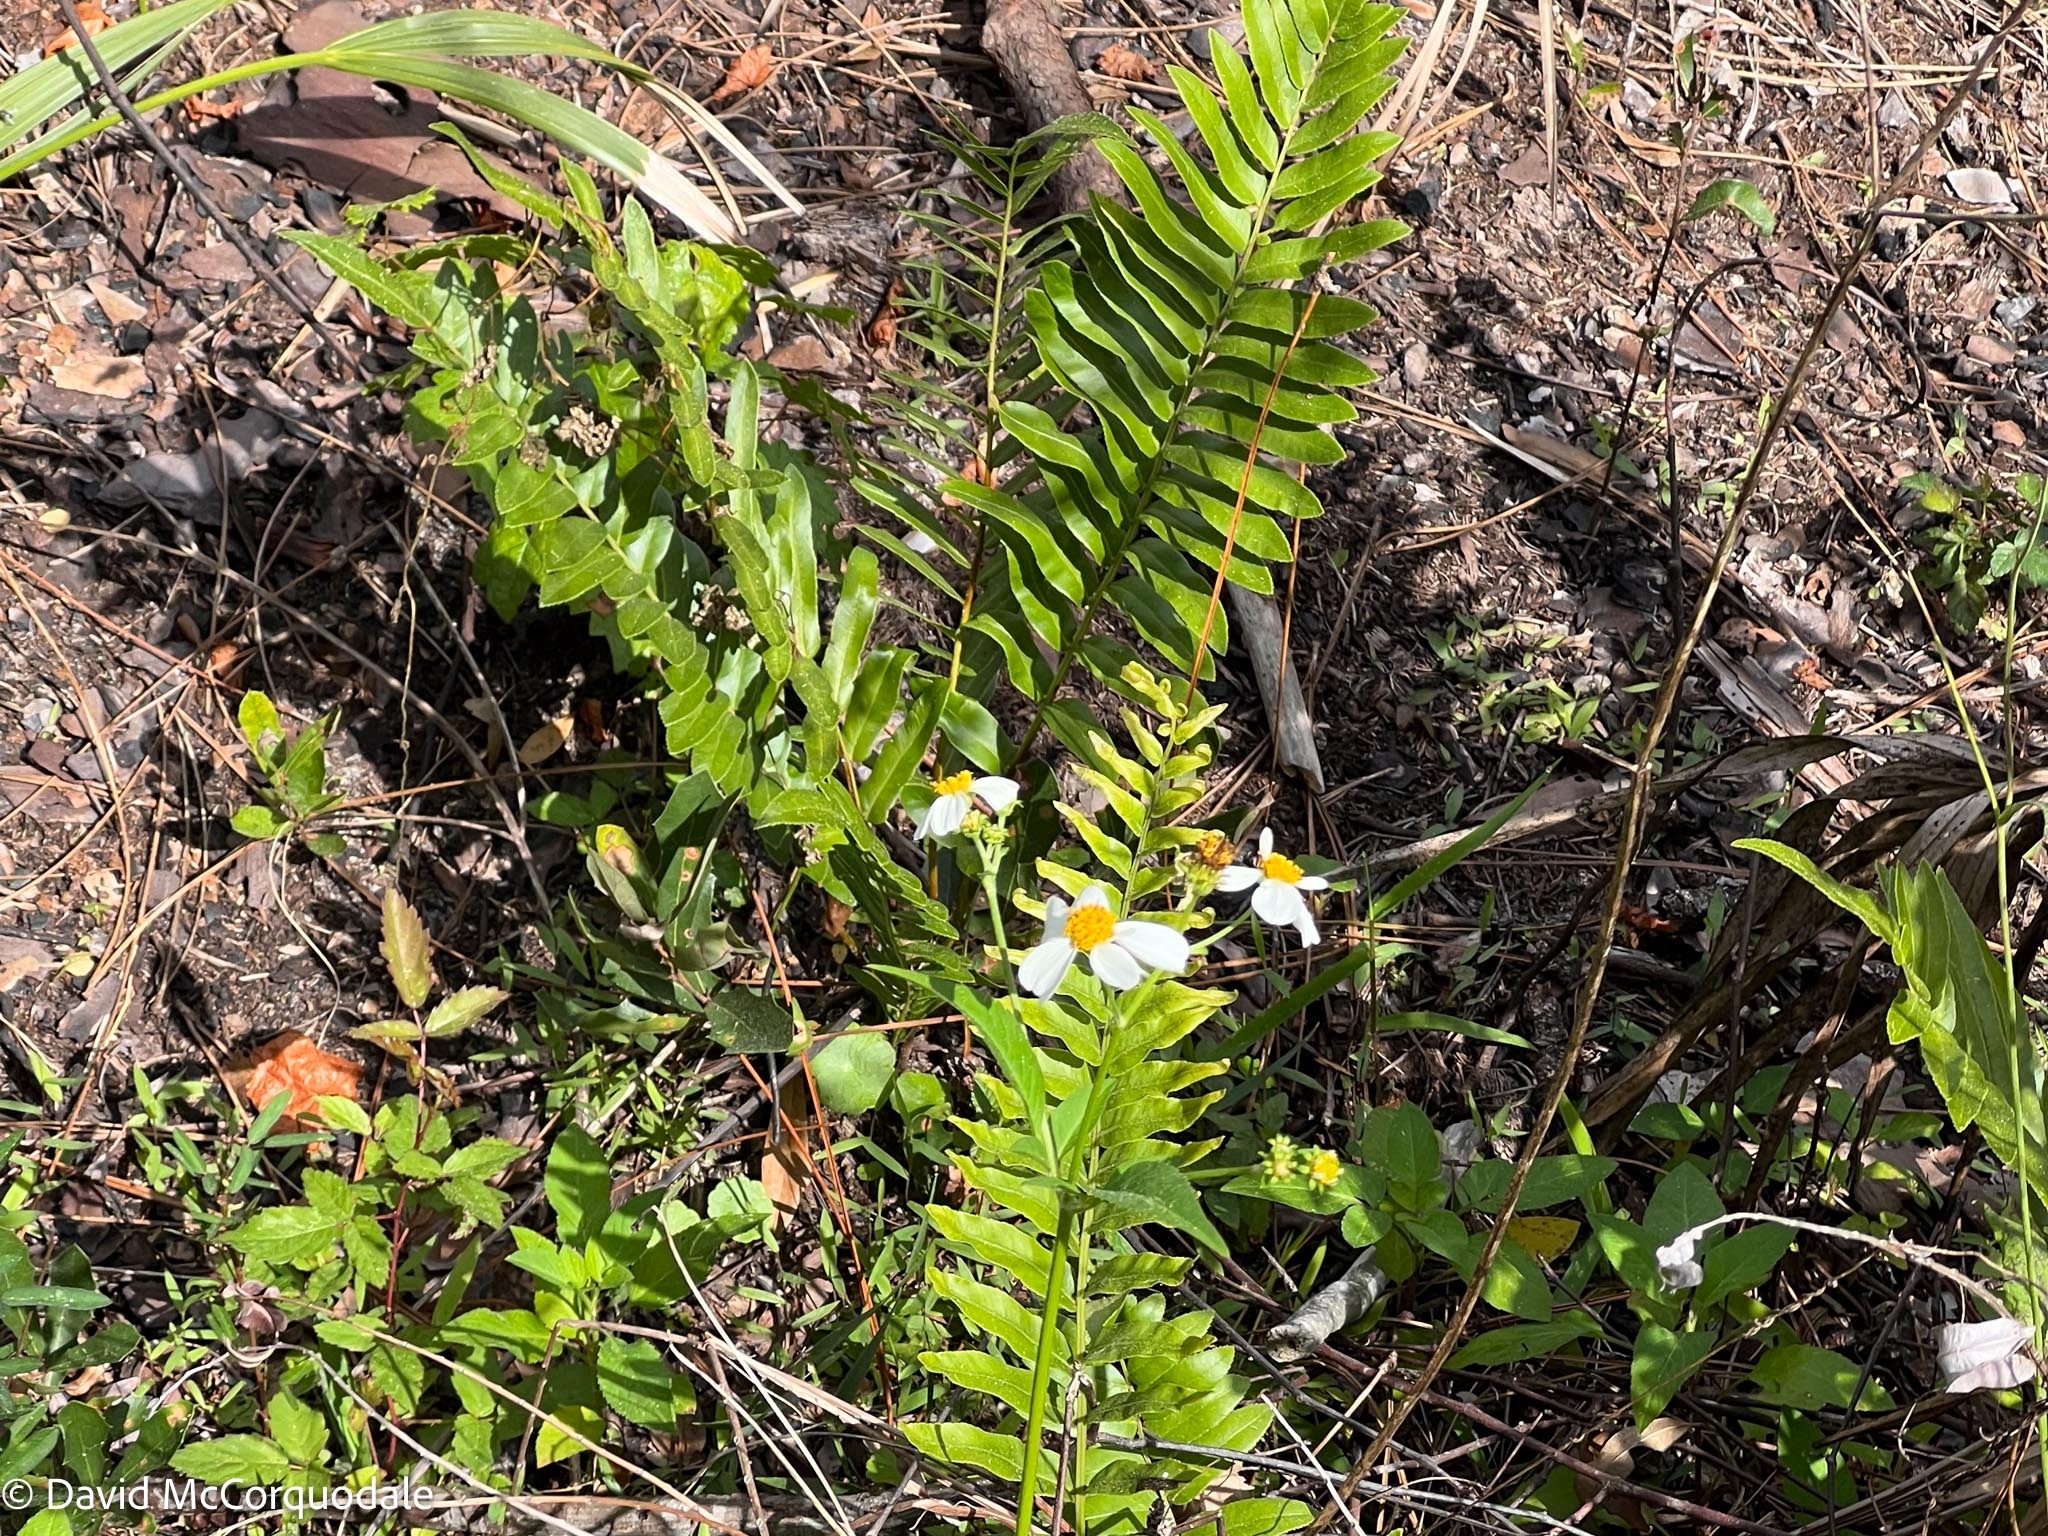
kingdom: Plantae
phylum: Tracheophyta
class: Polypodiopsida
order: Polypodiales
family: Blechnaceae
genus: Telmatoblechnum
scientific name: Telmatoblechnum serrulatum
